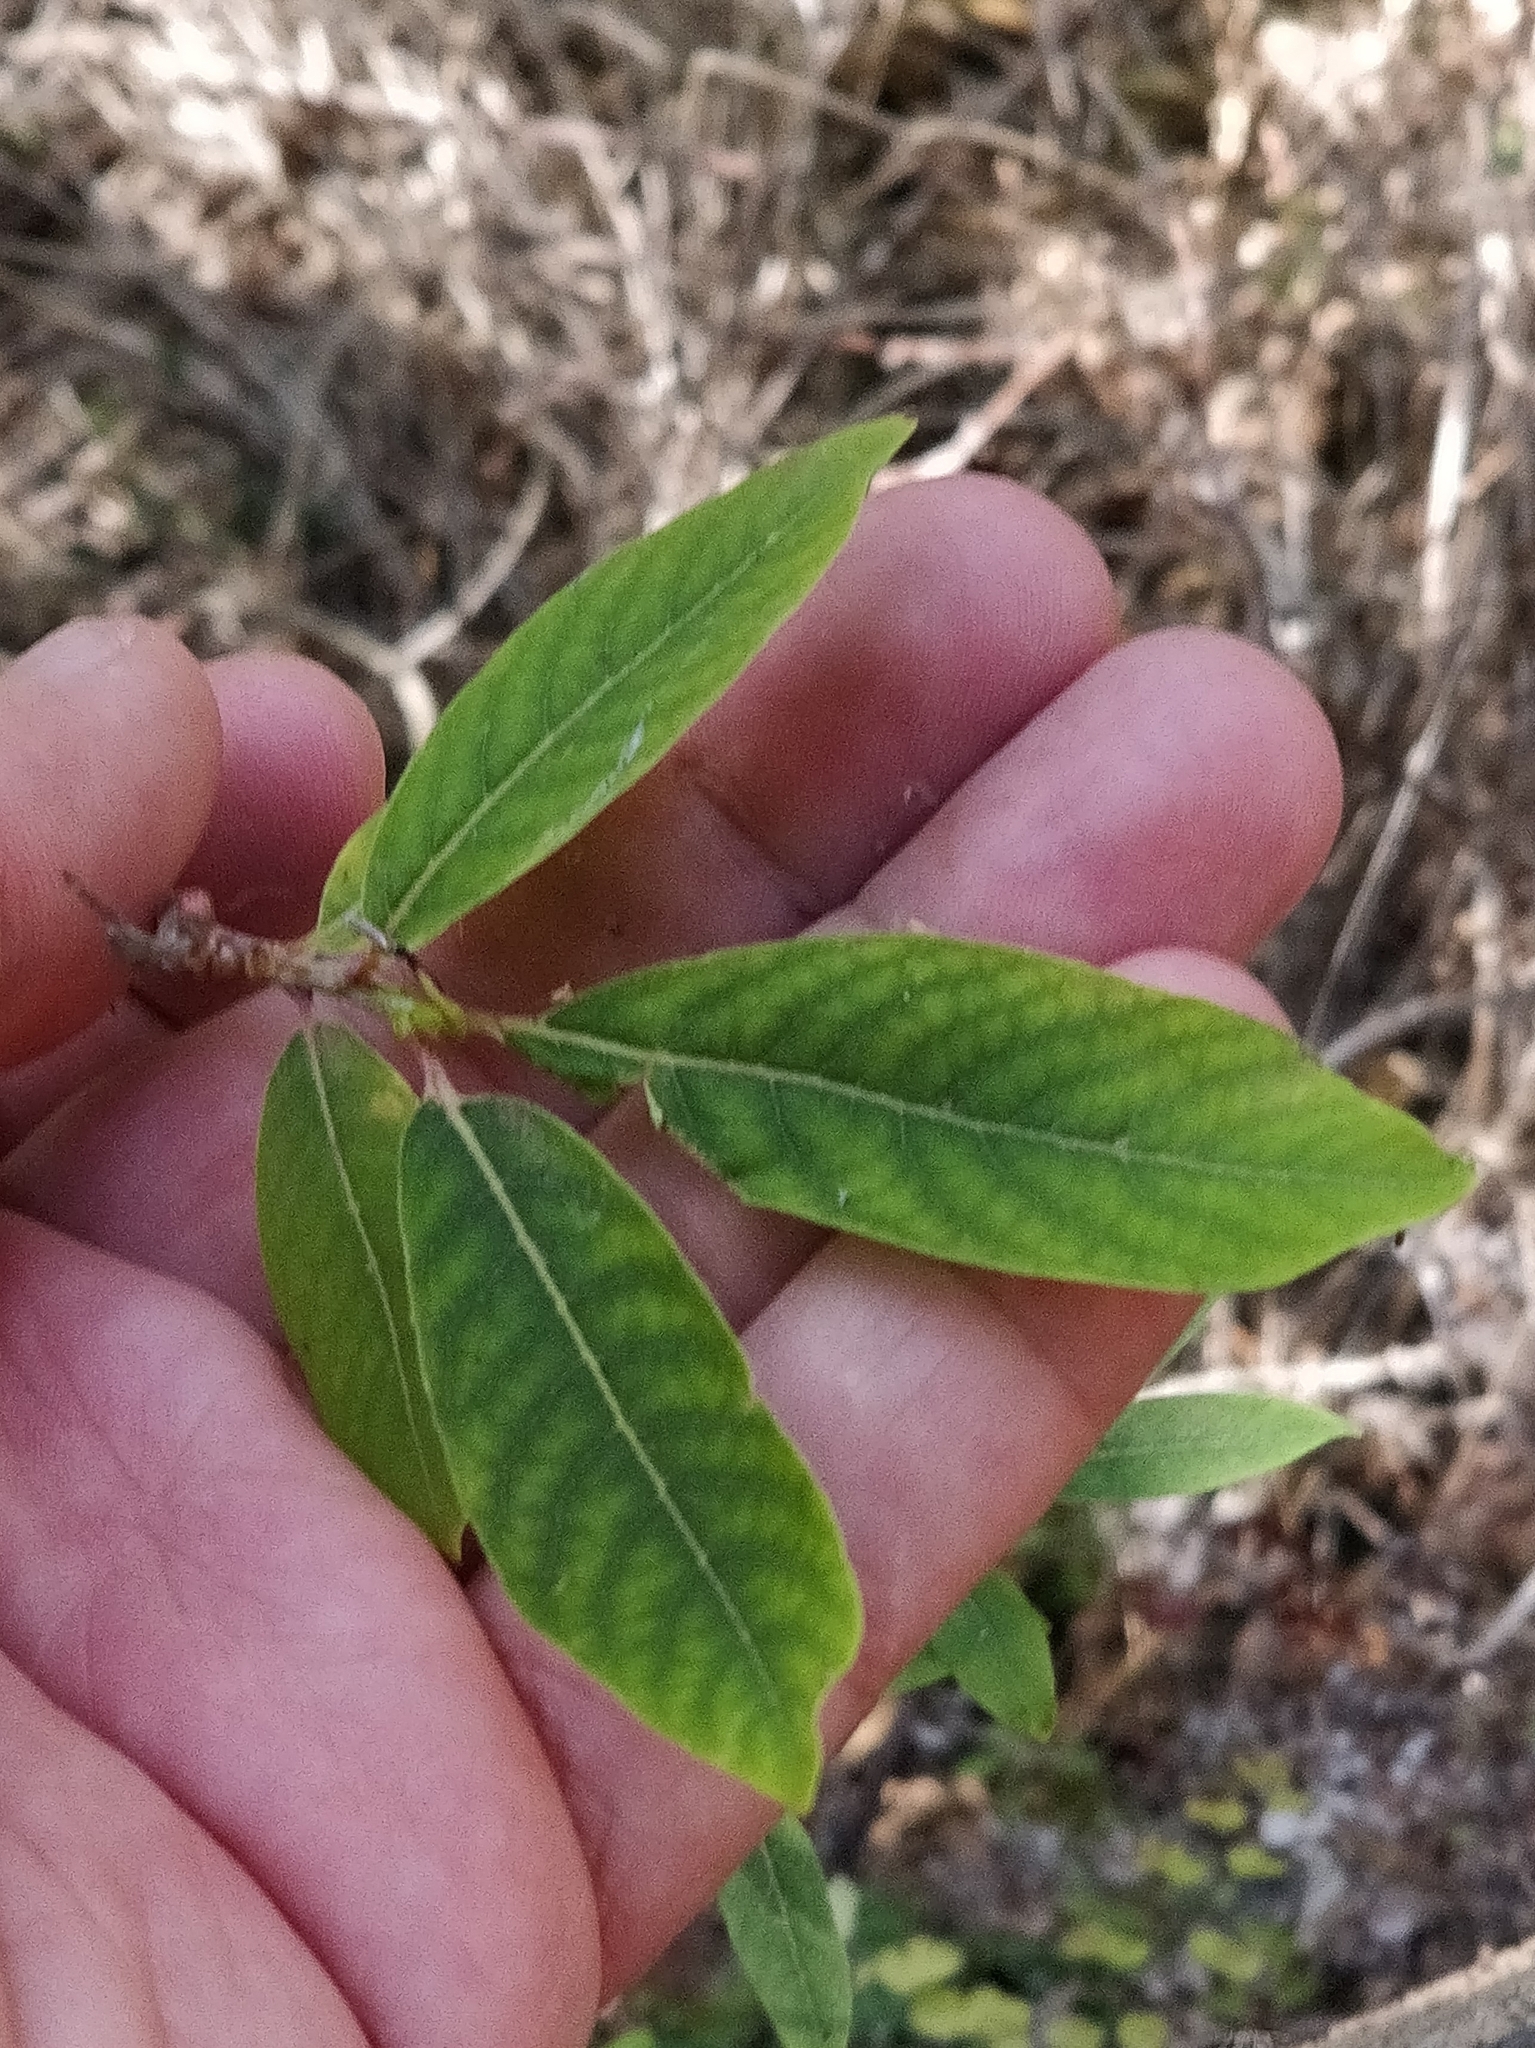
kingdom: Plantae
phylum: Tracheophyta
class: Magnoliopsida
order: Malpighiales
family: Salicaceae
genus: Salix
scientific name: Salix canariensis
